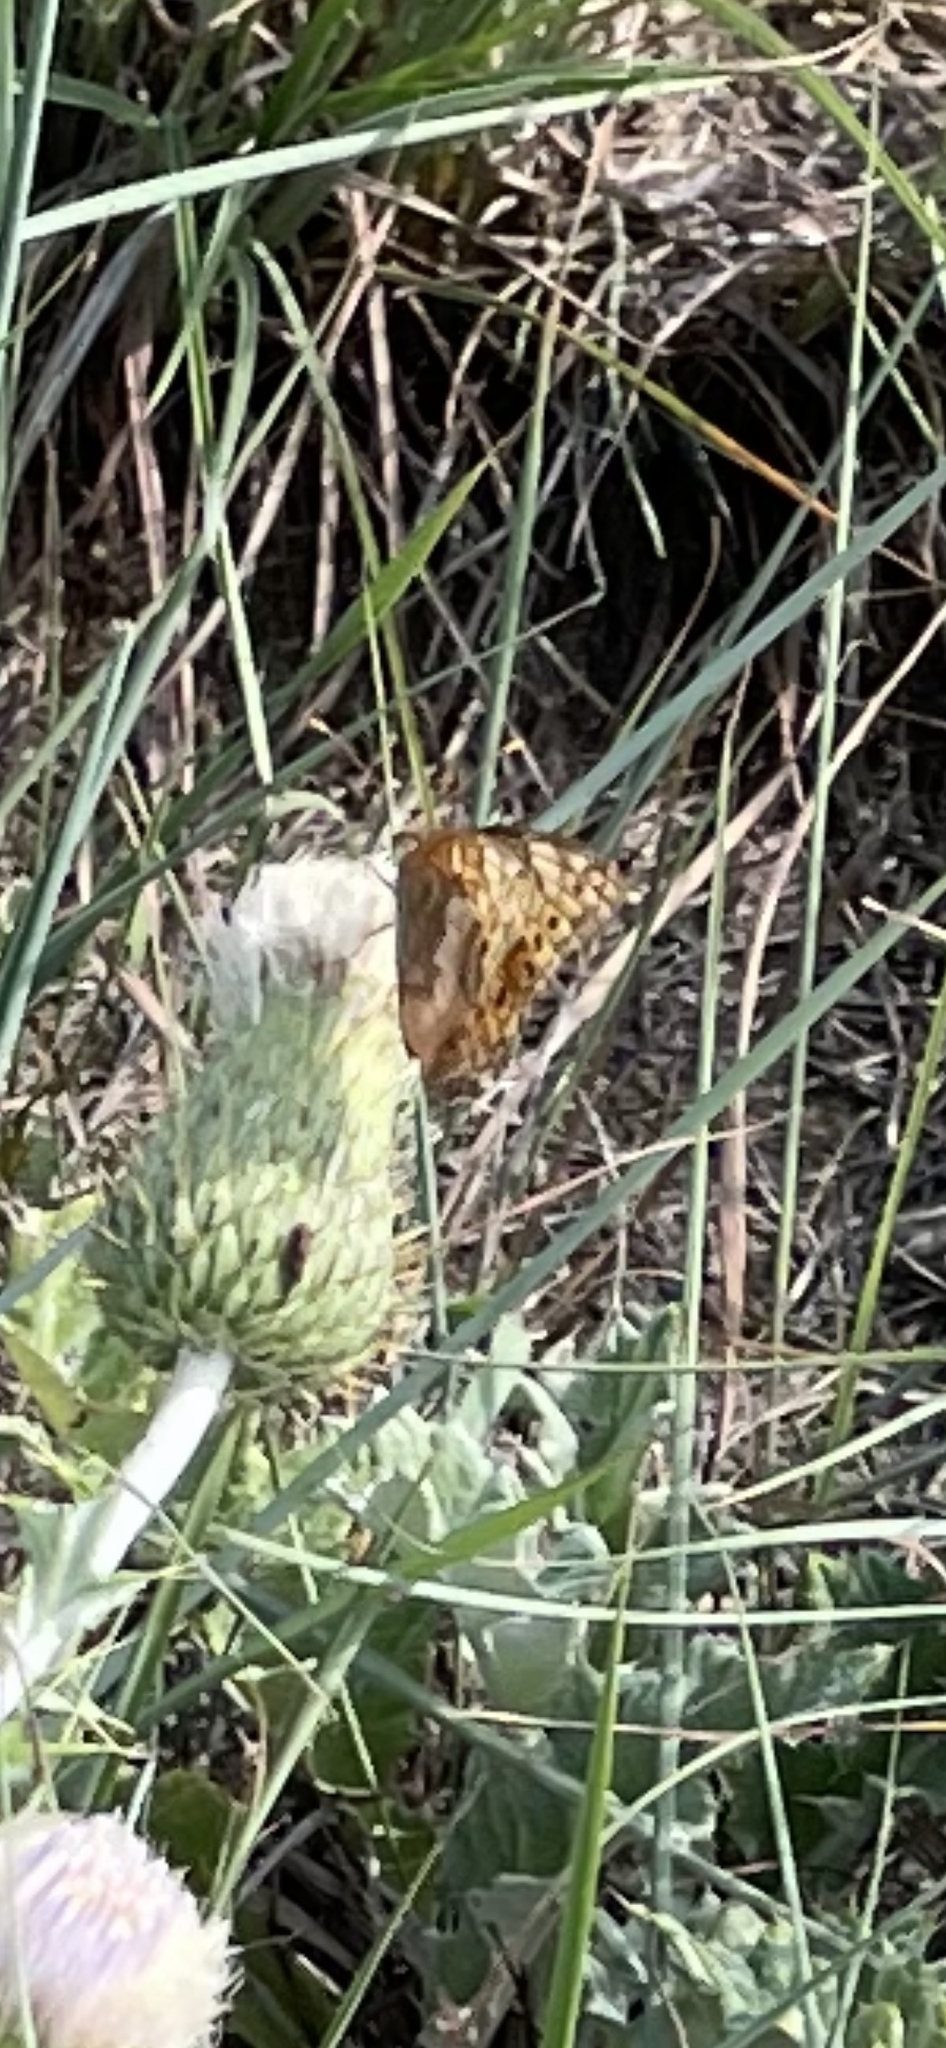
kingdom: Animalia
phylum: Arthropoda
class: Insecta
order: Lepidoptera
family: Nymphalidae
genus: Euptoieta
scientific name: Euptoieta claudia
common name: Variegated fritillary
